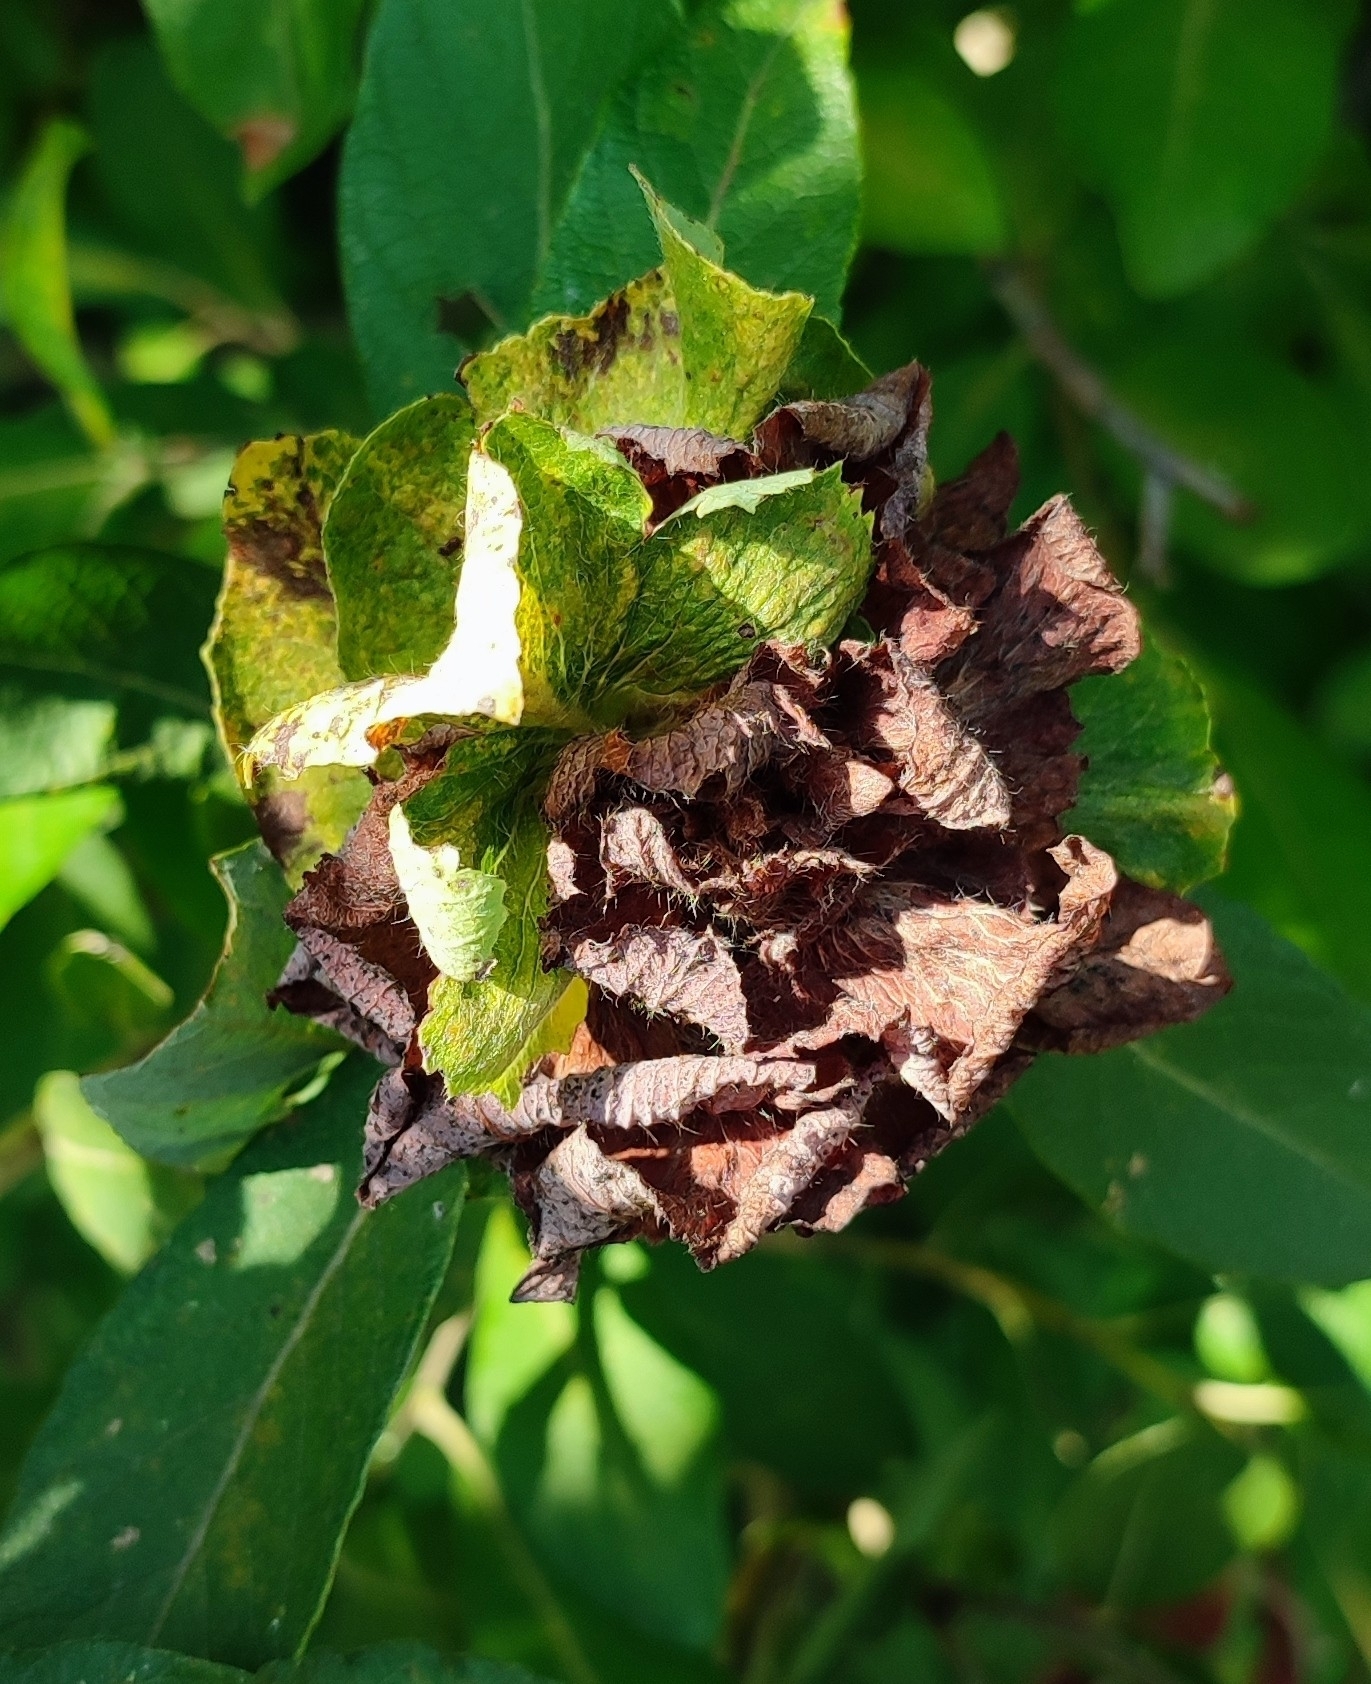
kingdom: Animalia
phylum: Arthropoda
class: Insecta
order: Diptera
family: Cecidomyiidae
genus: Rabdophaga
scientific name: Rabdophaga rosaria
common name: Willow rose gall midge
